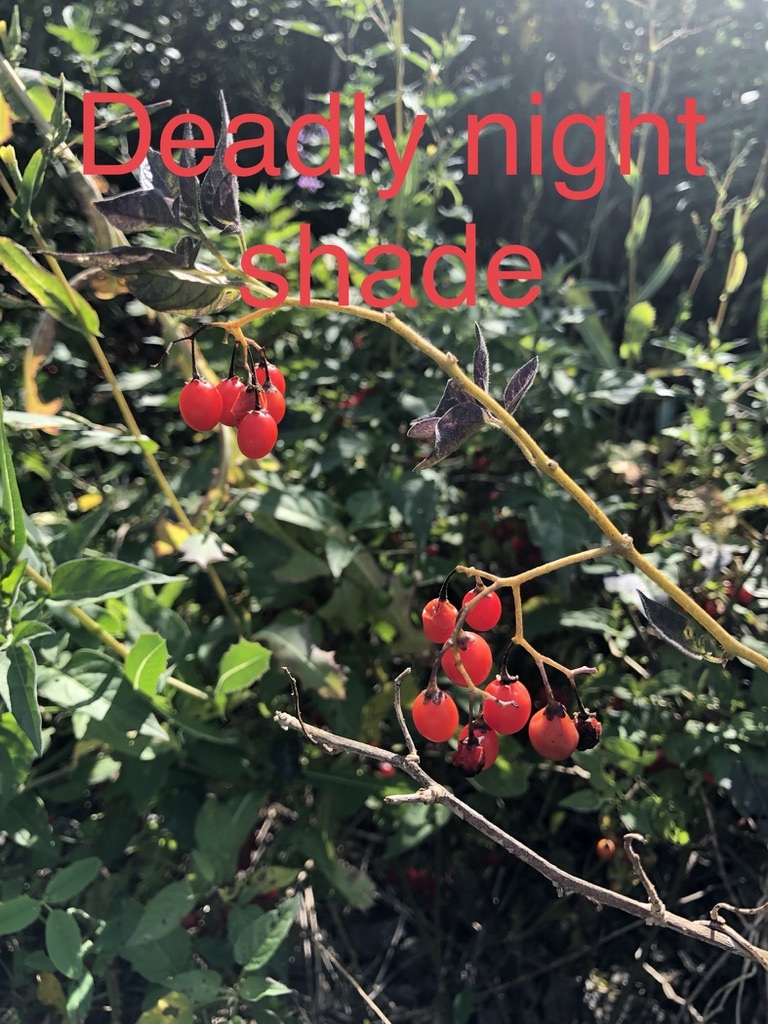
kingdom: Plantae
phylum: Tracheophyta
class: Magnoliopsida
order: Solanales
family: Solanaceae
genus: Solanum
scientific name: Solanum dulcamara
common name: Climbing nightshade
